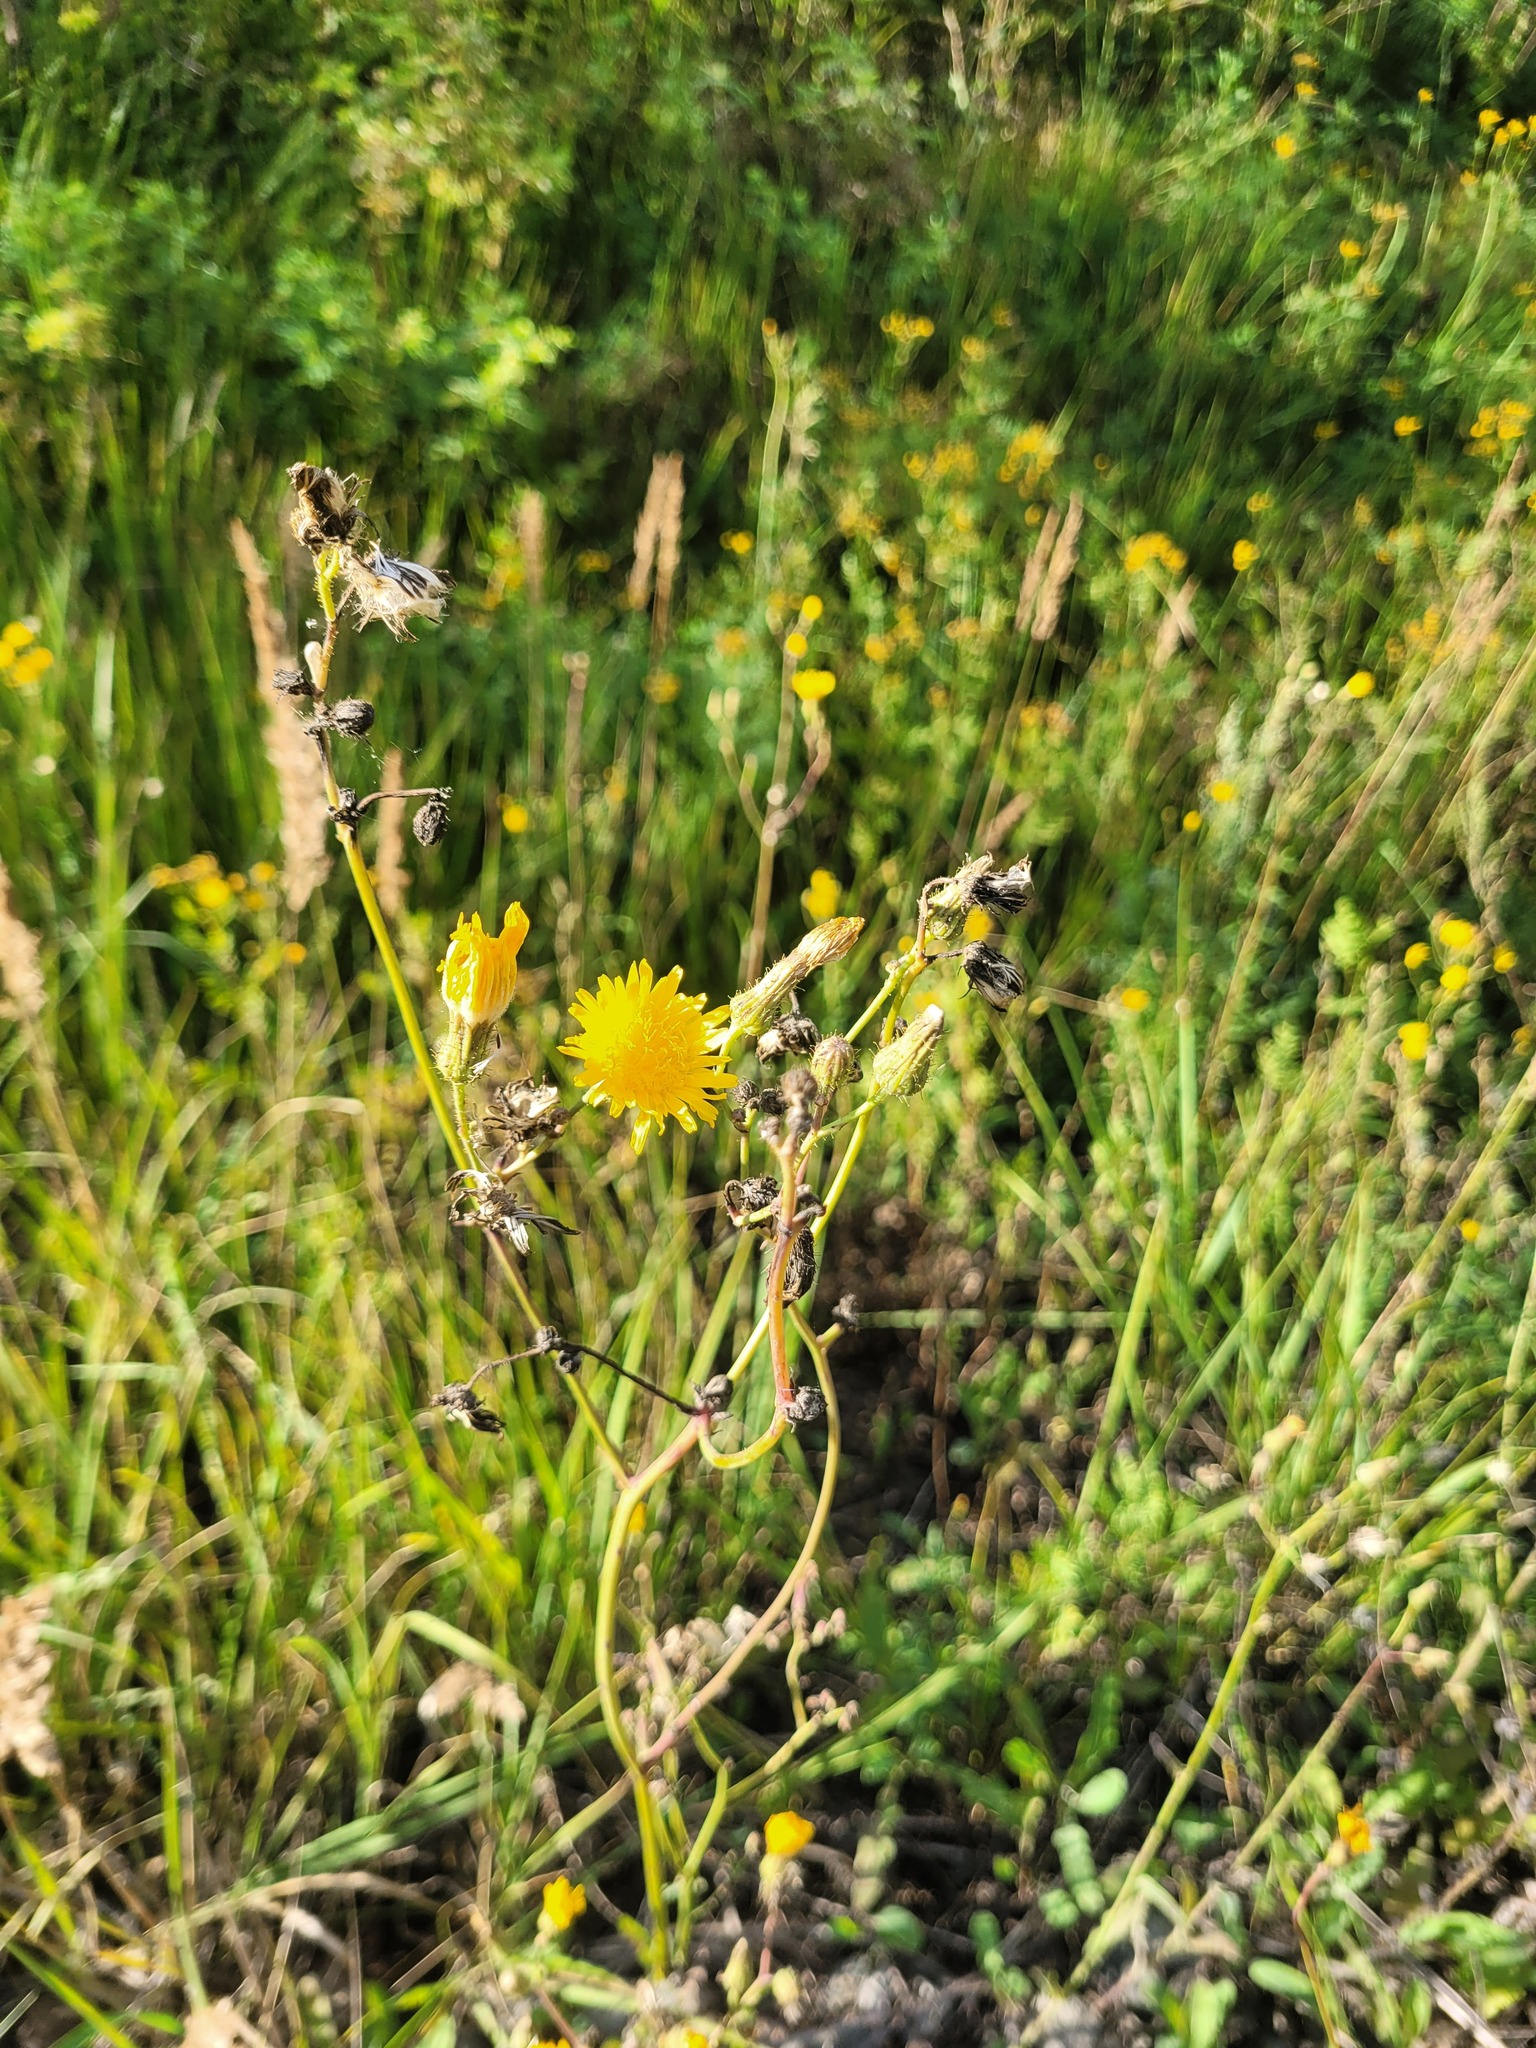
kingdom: Plantae
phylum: Tracheophyta
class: Magnoliopsida
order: Asterales
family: Asteraceae
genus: Sonchus
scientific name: Sonchus arvensis
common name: Perennial sow-thistle
